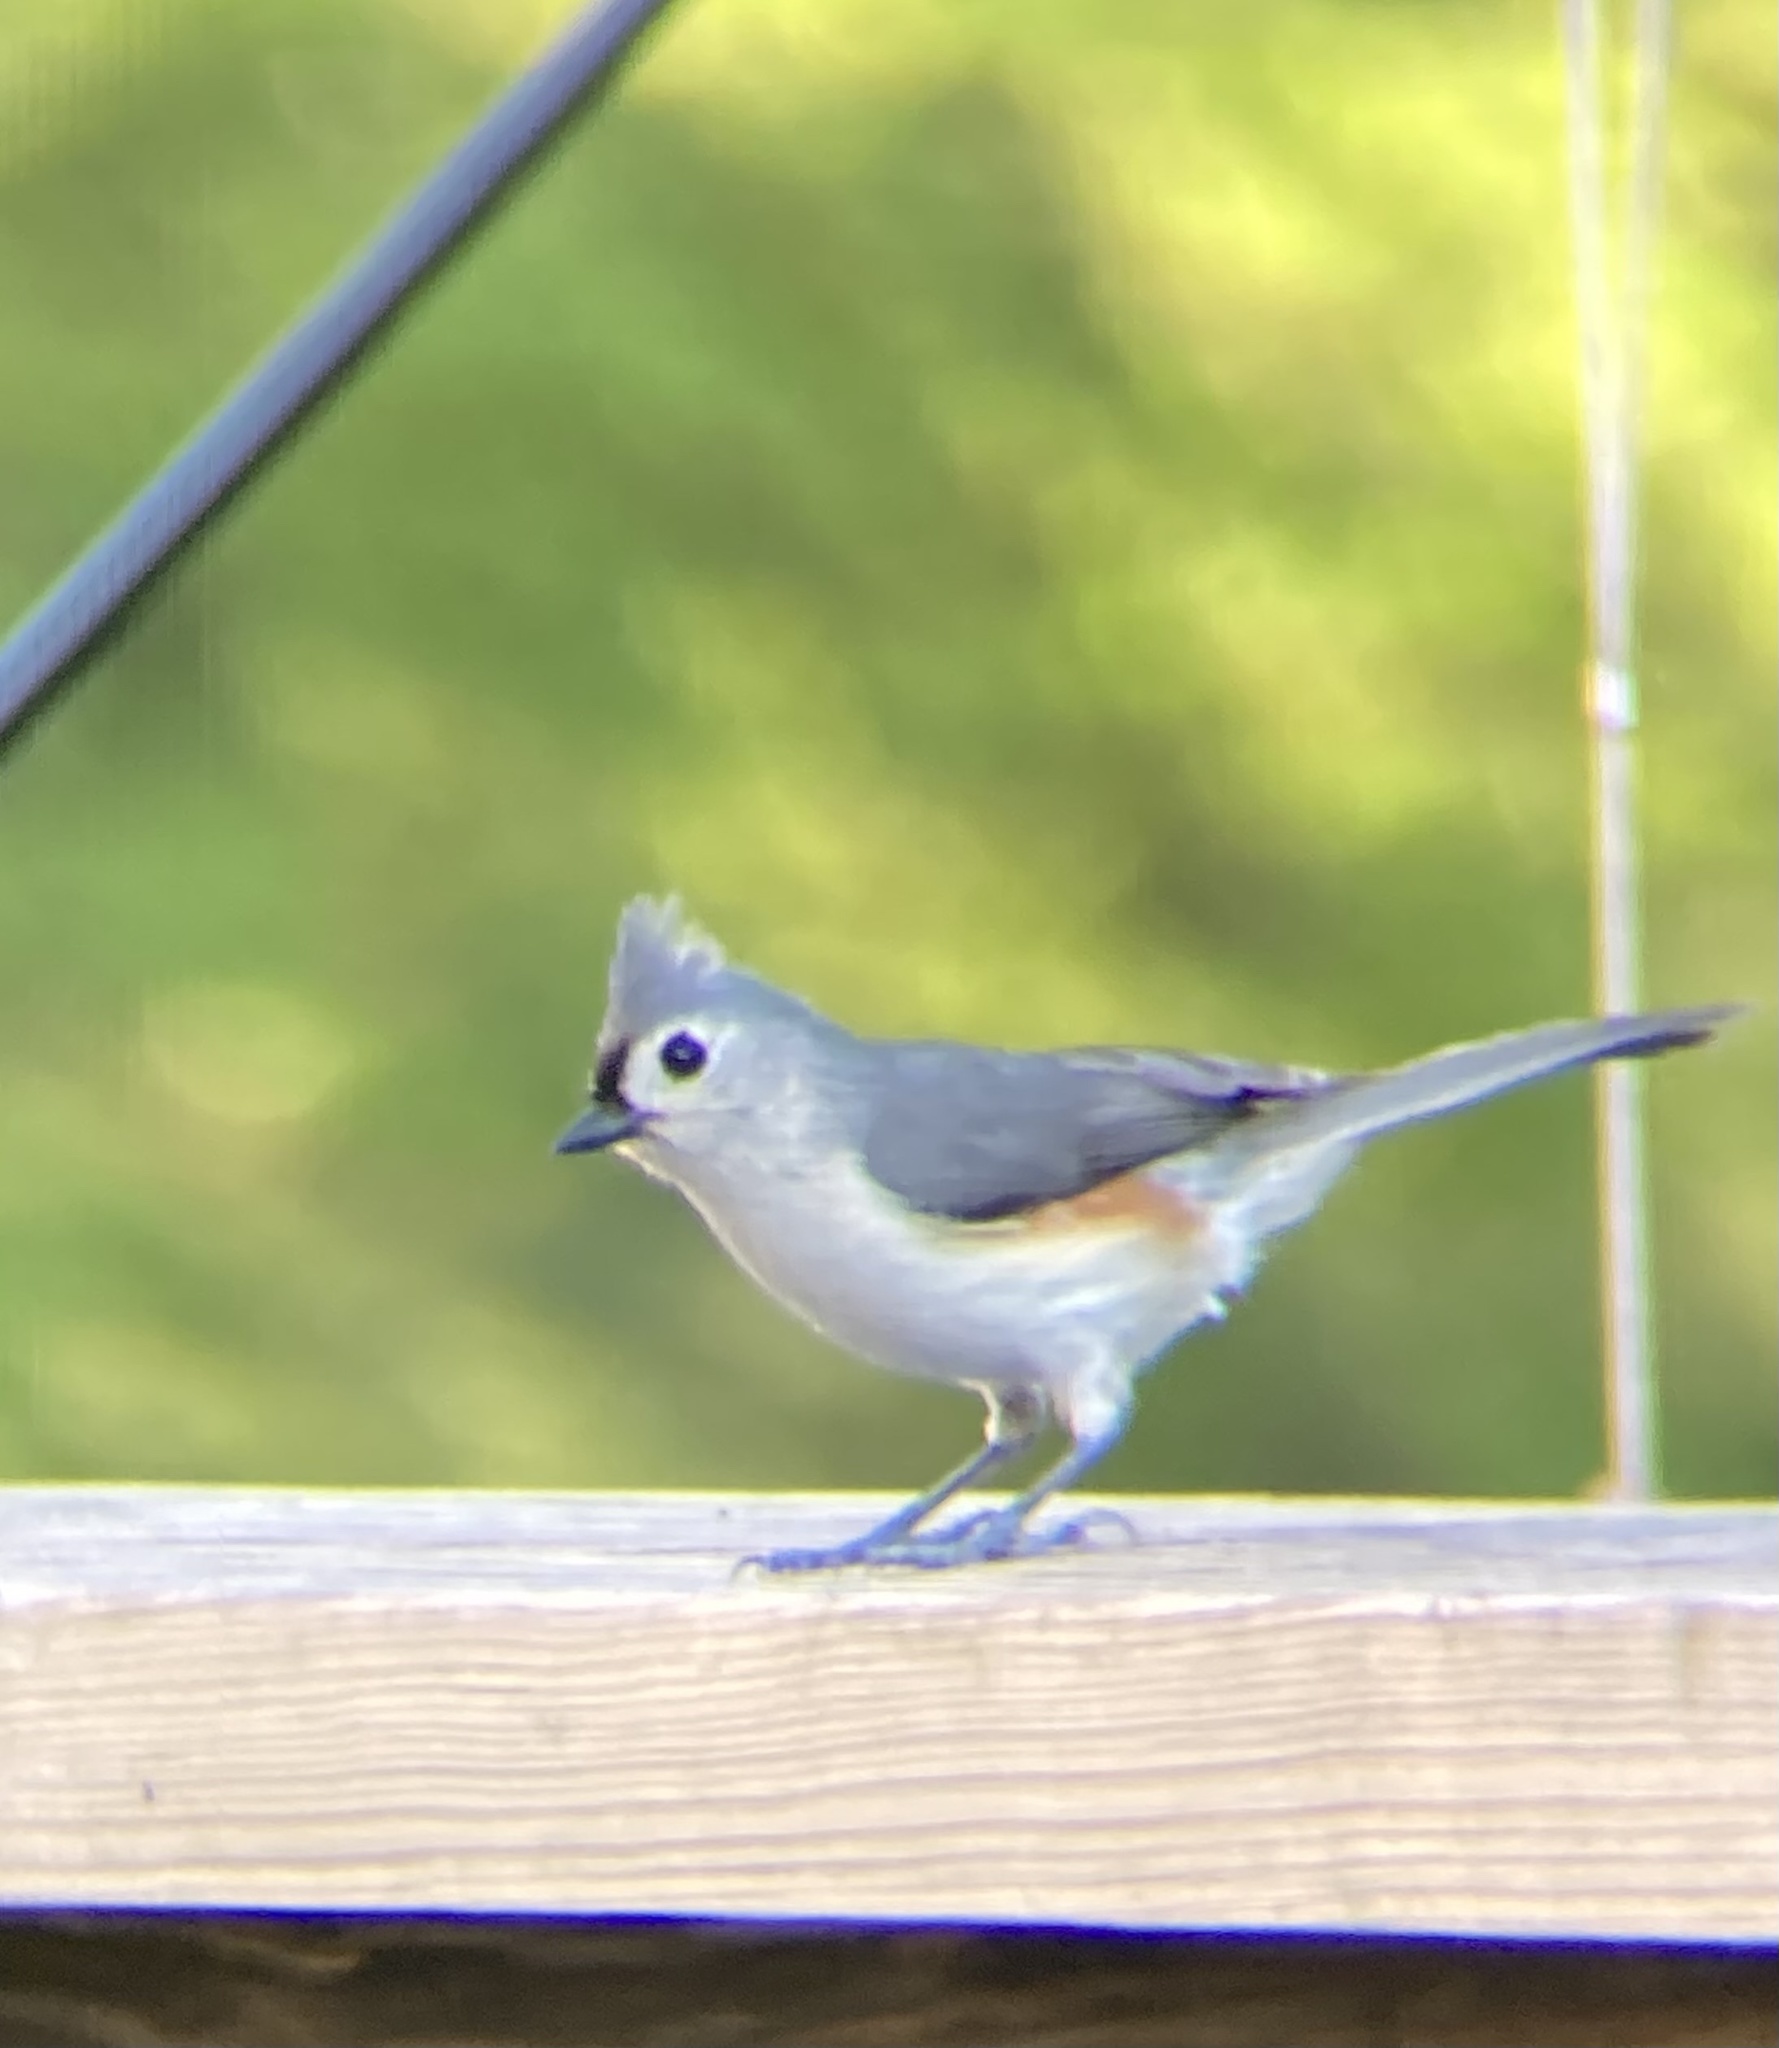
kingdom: Animalia
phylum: Chordata
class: Aves
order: Passeriformes
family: Paridae
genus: Baeolophus
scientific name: Baeolophus bicolor
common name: Tufted titmouse
